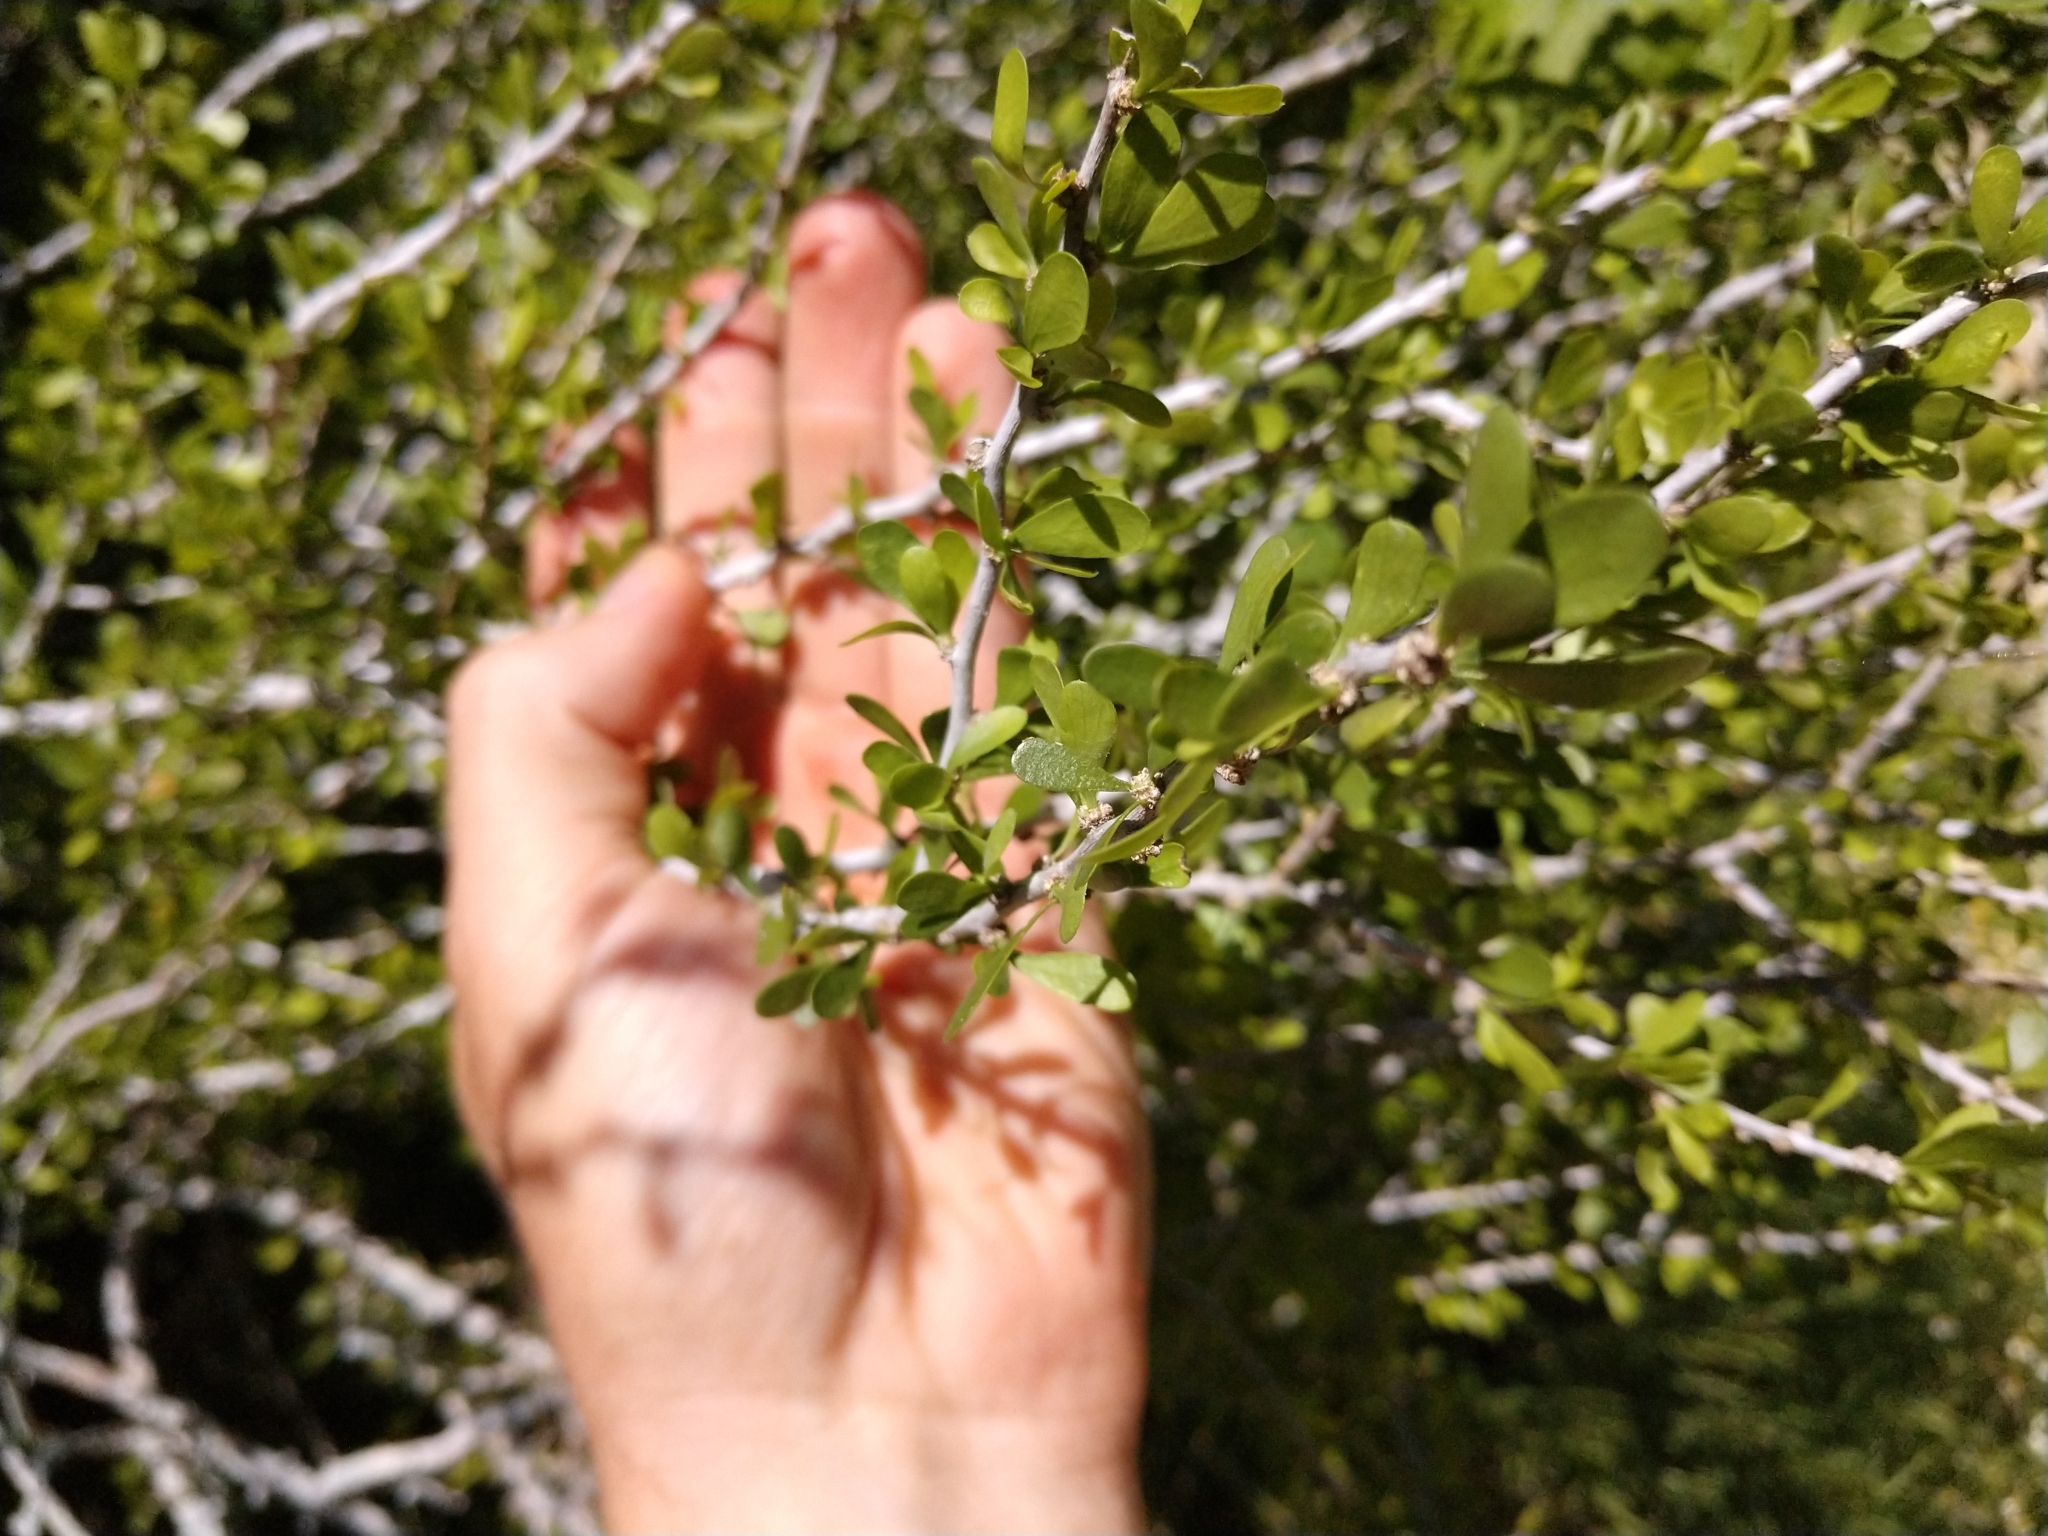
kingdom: Plantae
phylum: Tracheophyta
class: Magnoliopsida
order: Celastrales
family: Celastraceae
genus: Schaefferia
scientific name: Schaefferia cuneifolia
